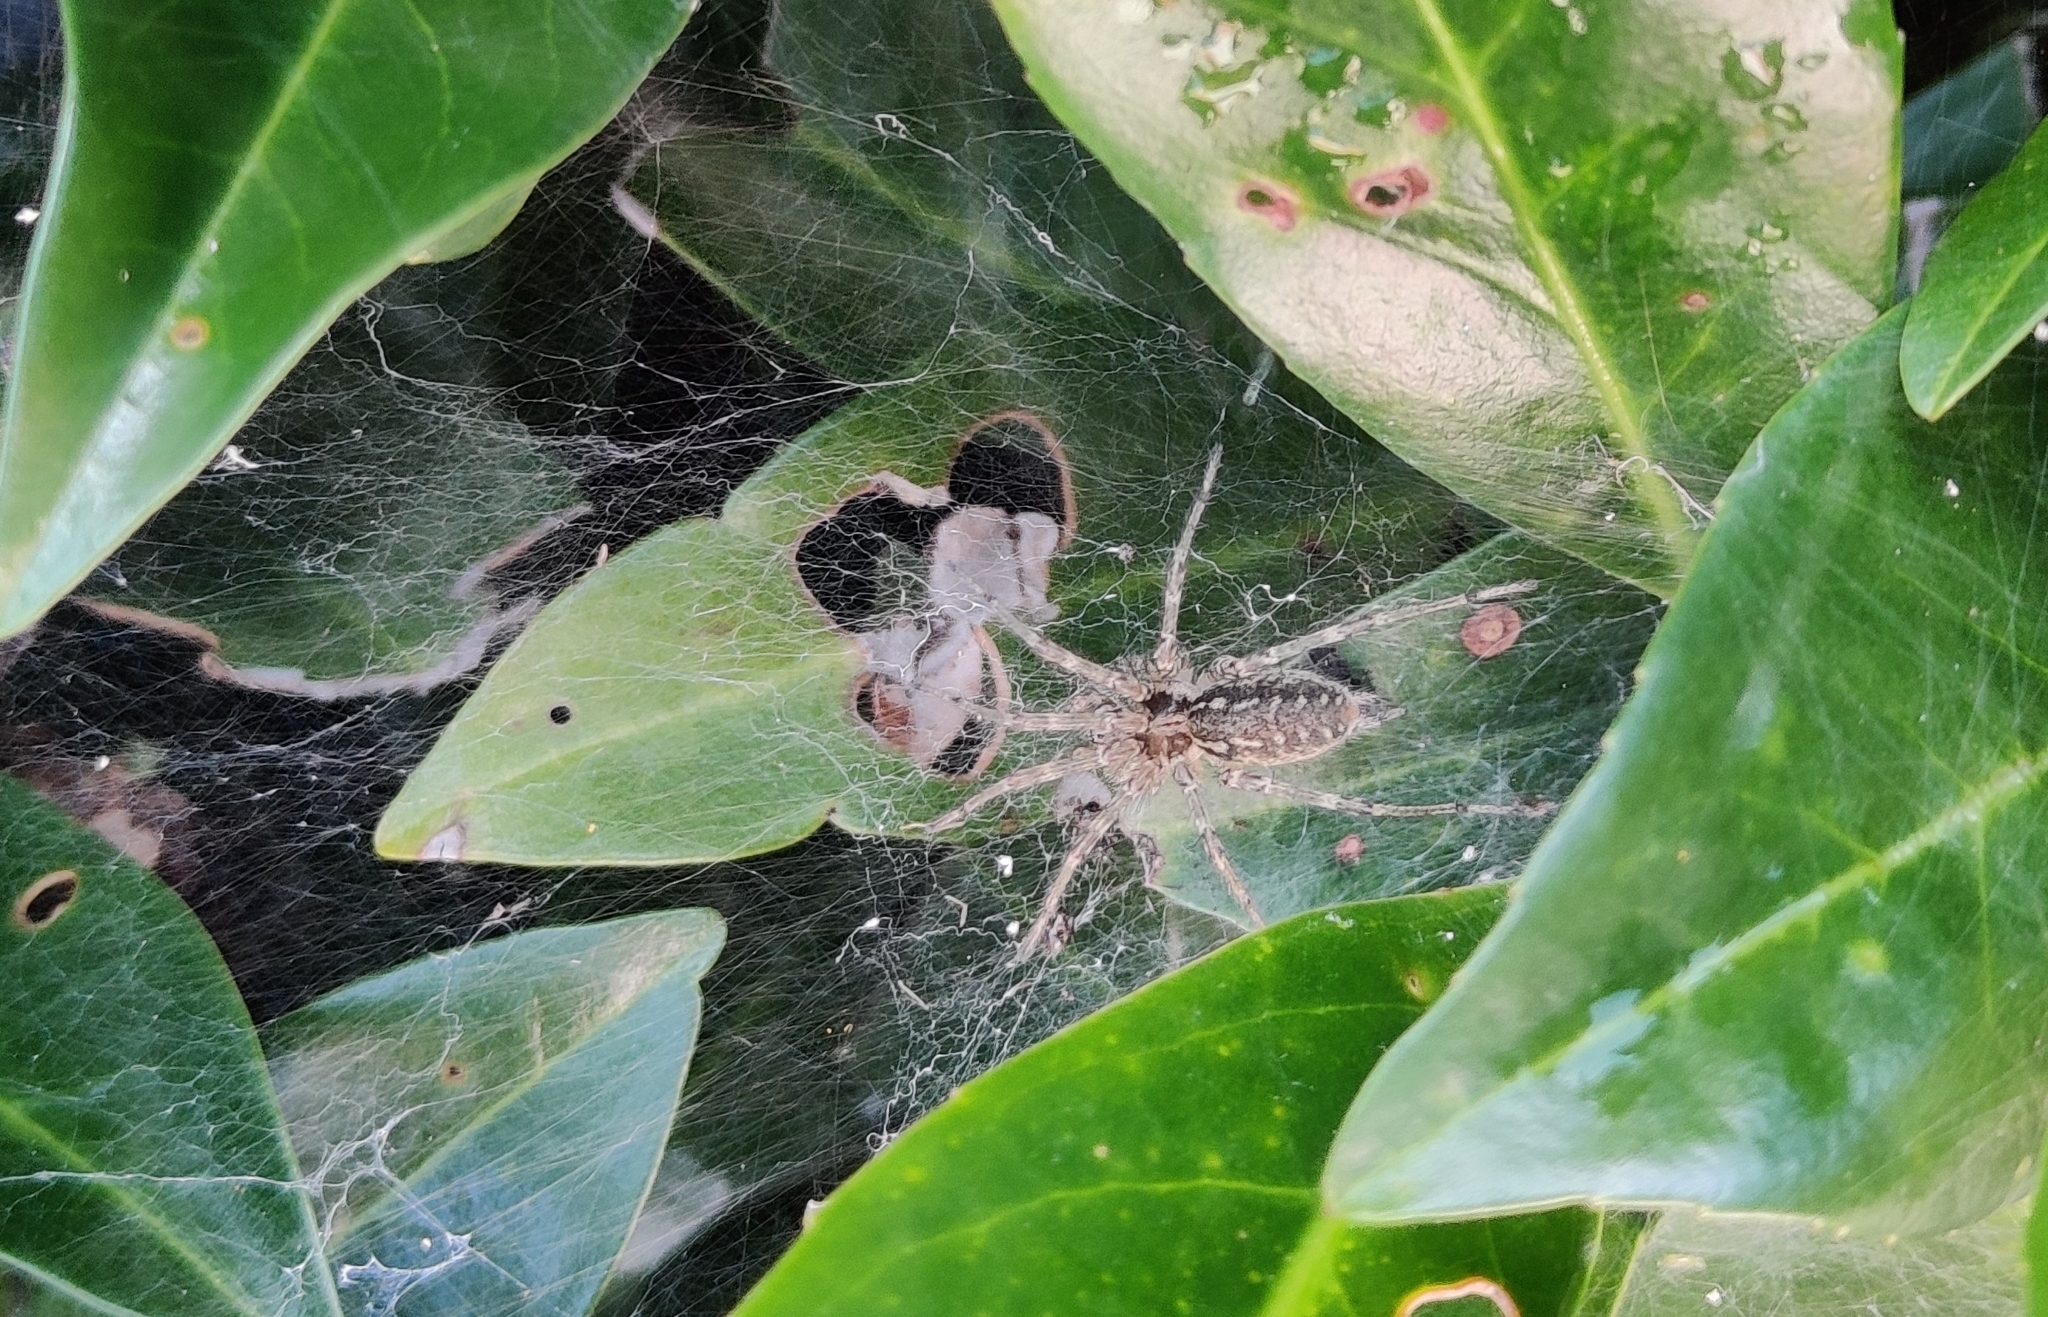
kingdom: Animalia
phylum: Arthropoda
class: Arachnida
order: Araneae
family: Agelenidae
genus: Allagelena
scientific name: Allagelena gracilens
